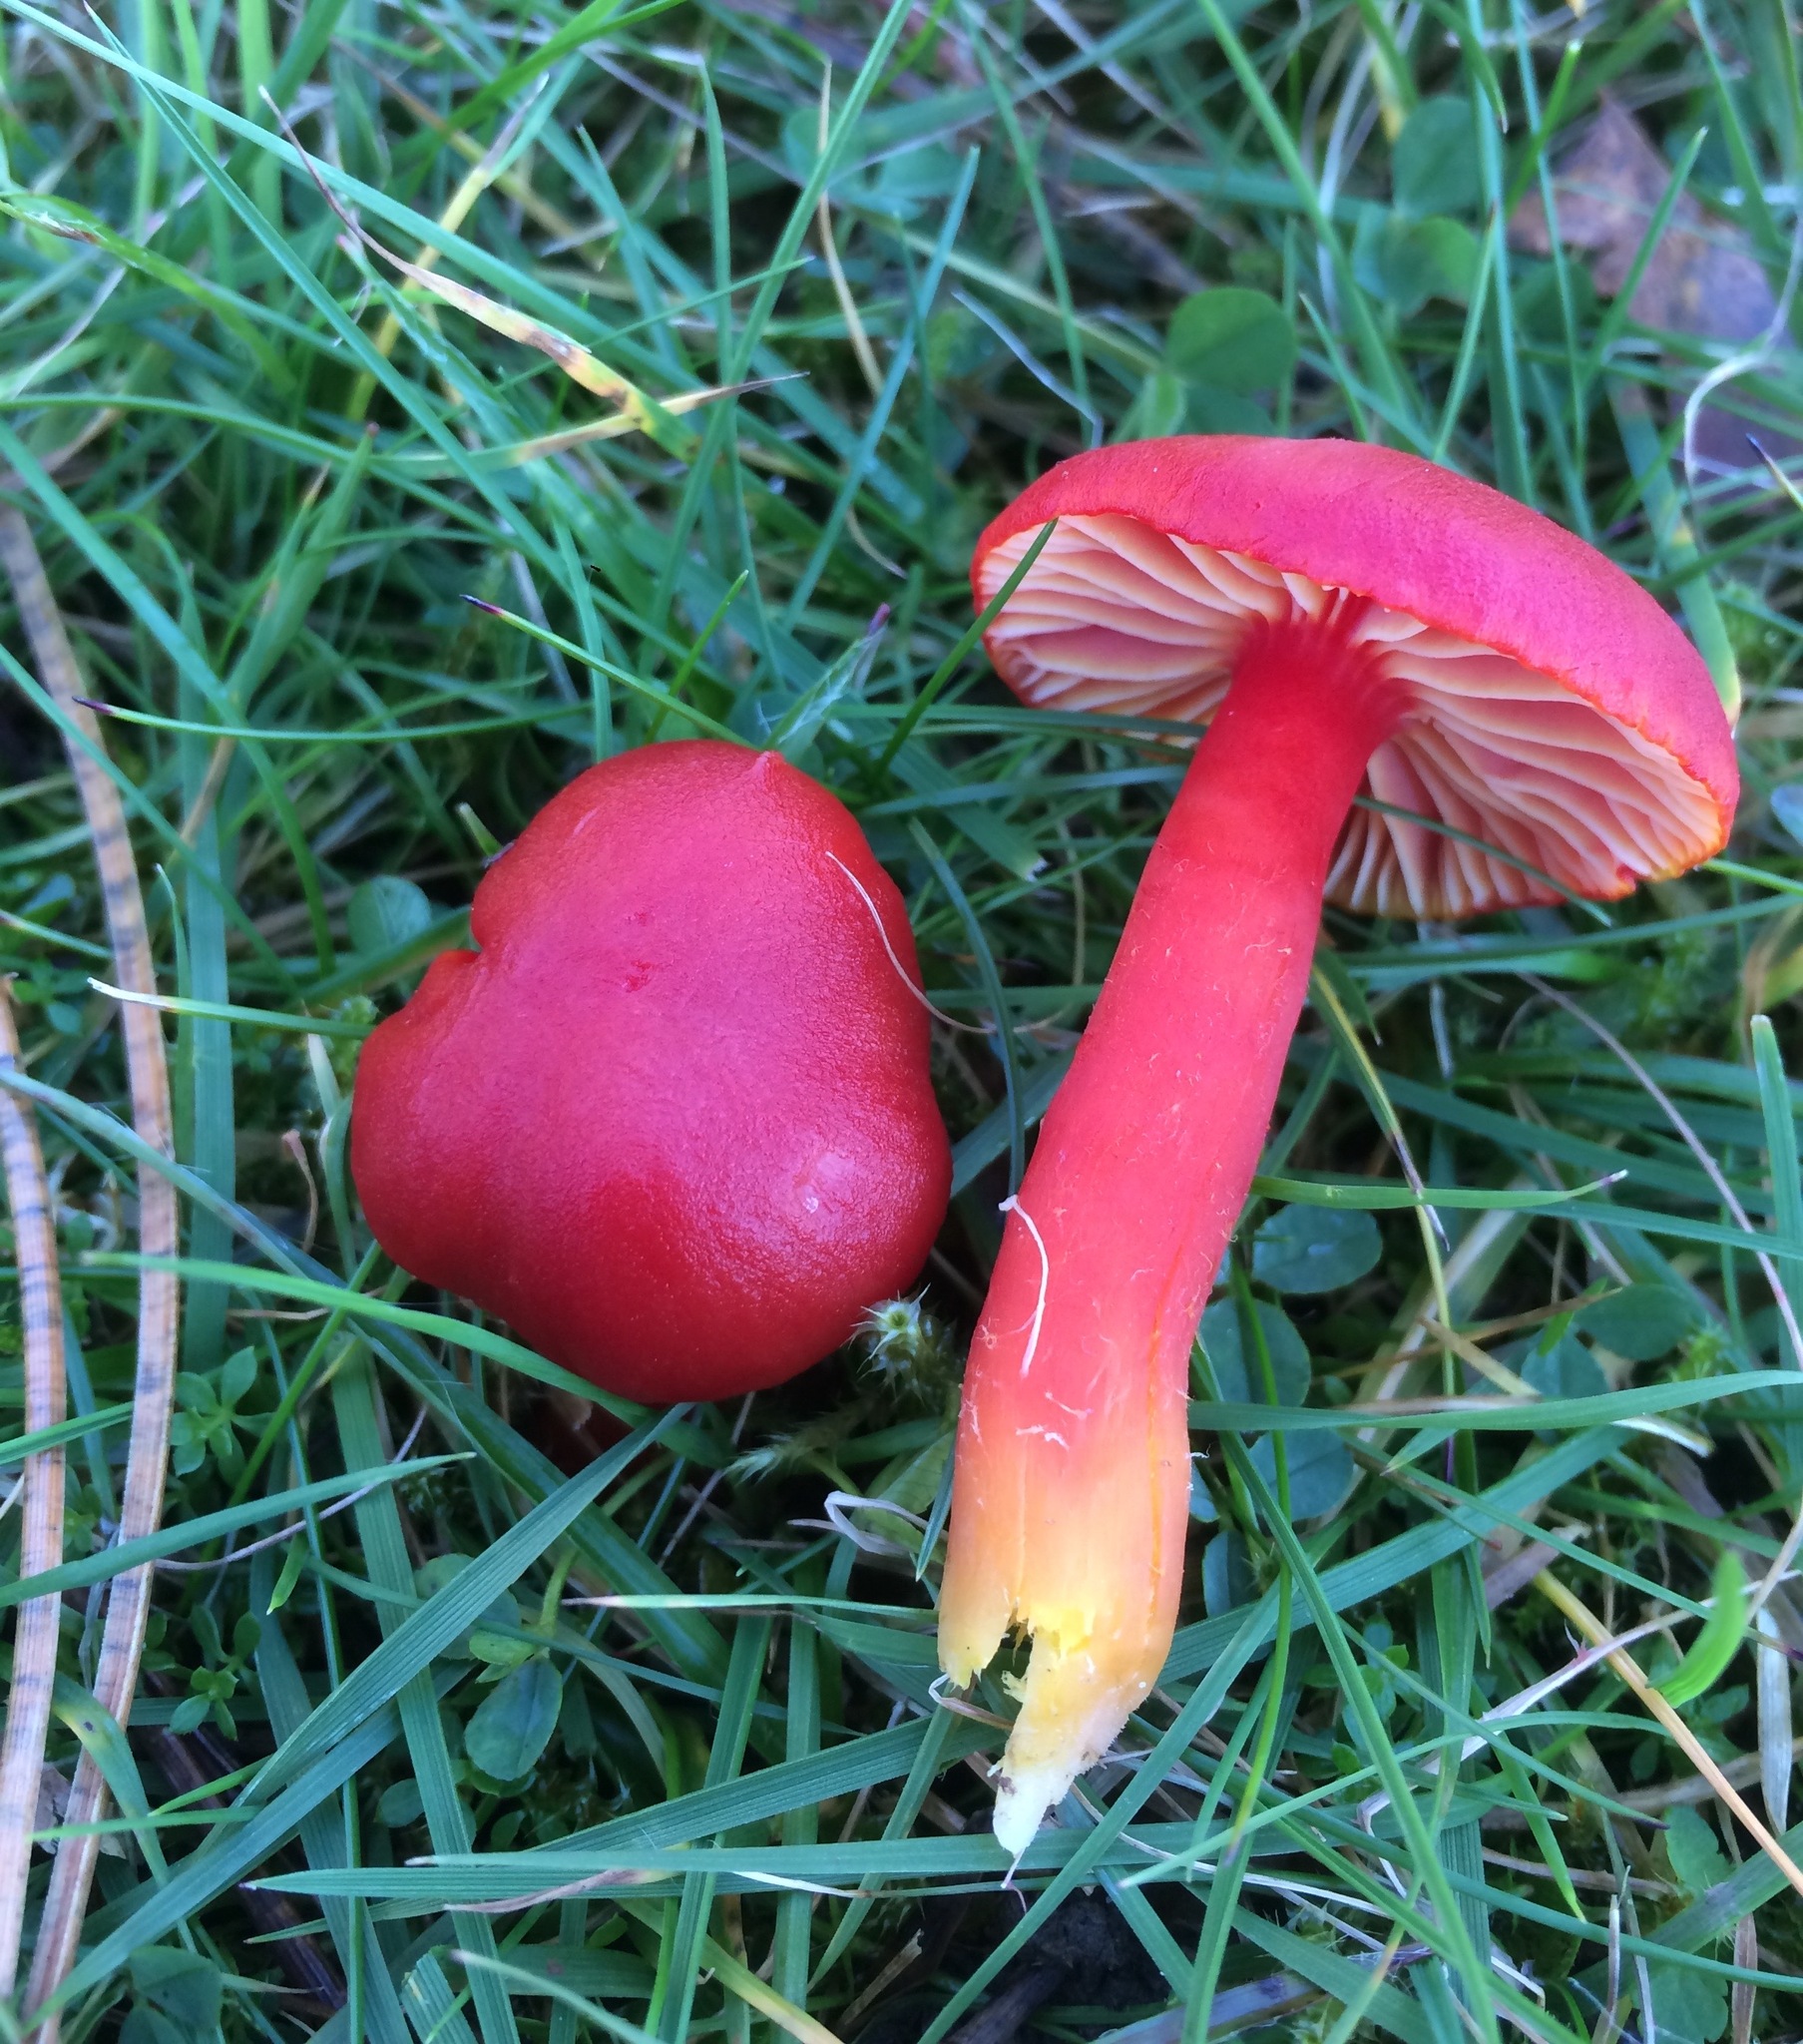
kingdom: Fungi
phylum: Basidiomycota
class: Agaricomycetes
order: Agaricales
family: Hygrophoraceae
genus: Hygrocybe
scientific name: Hygrocybe coccinea
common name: Scarlet hood
